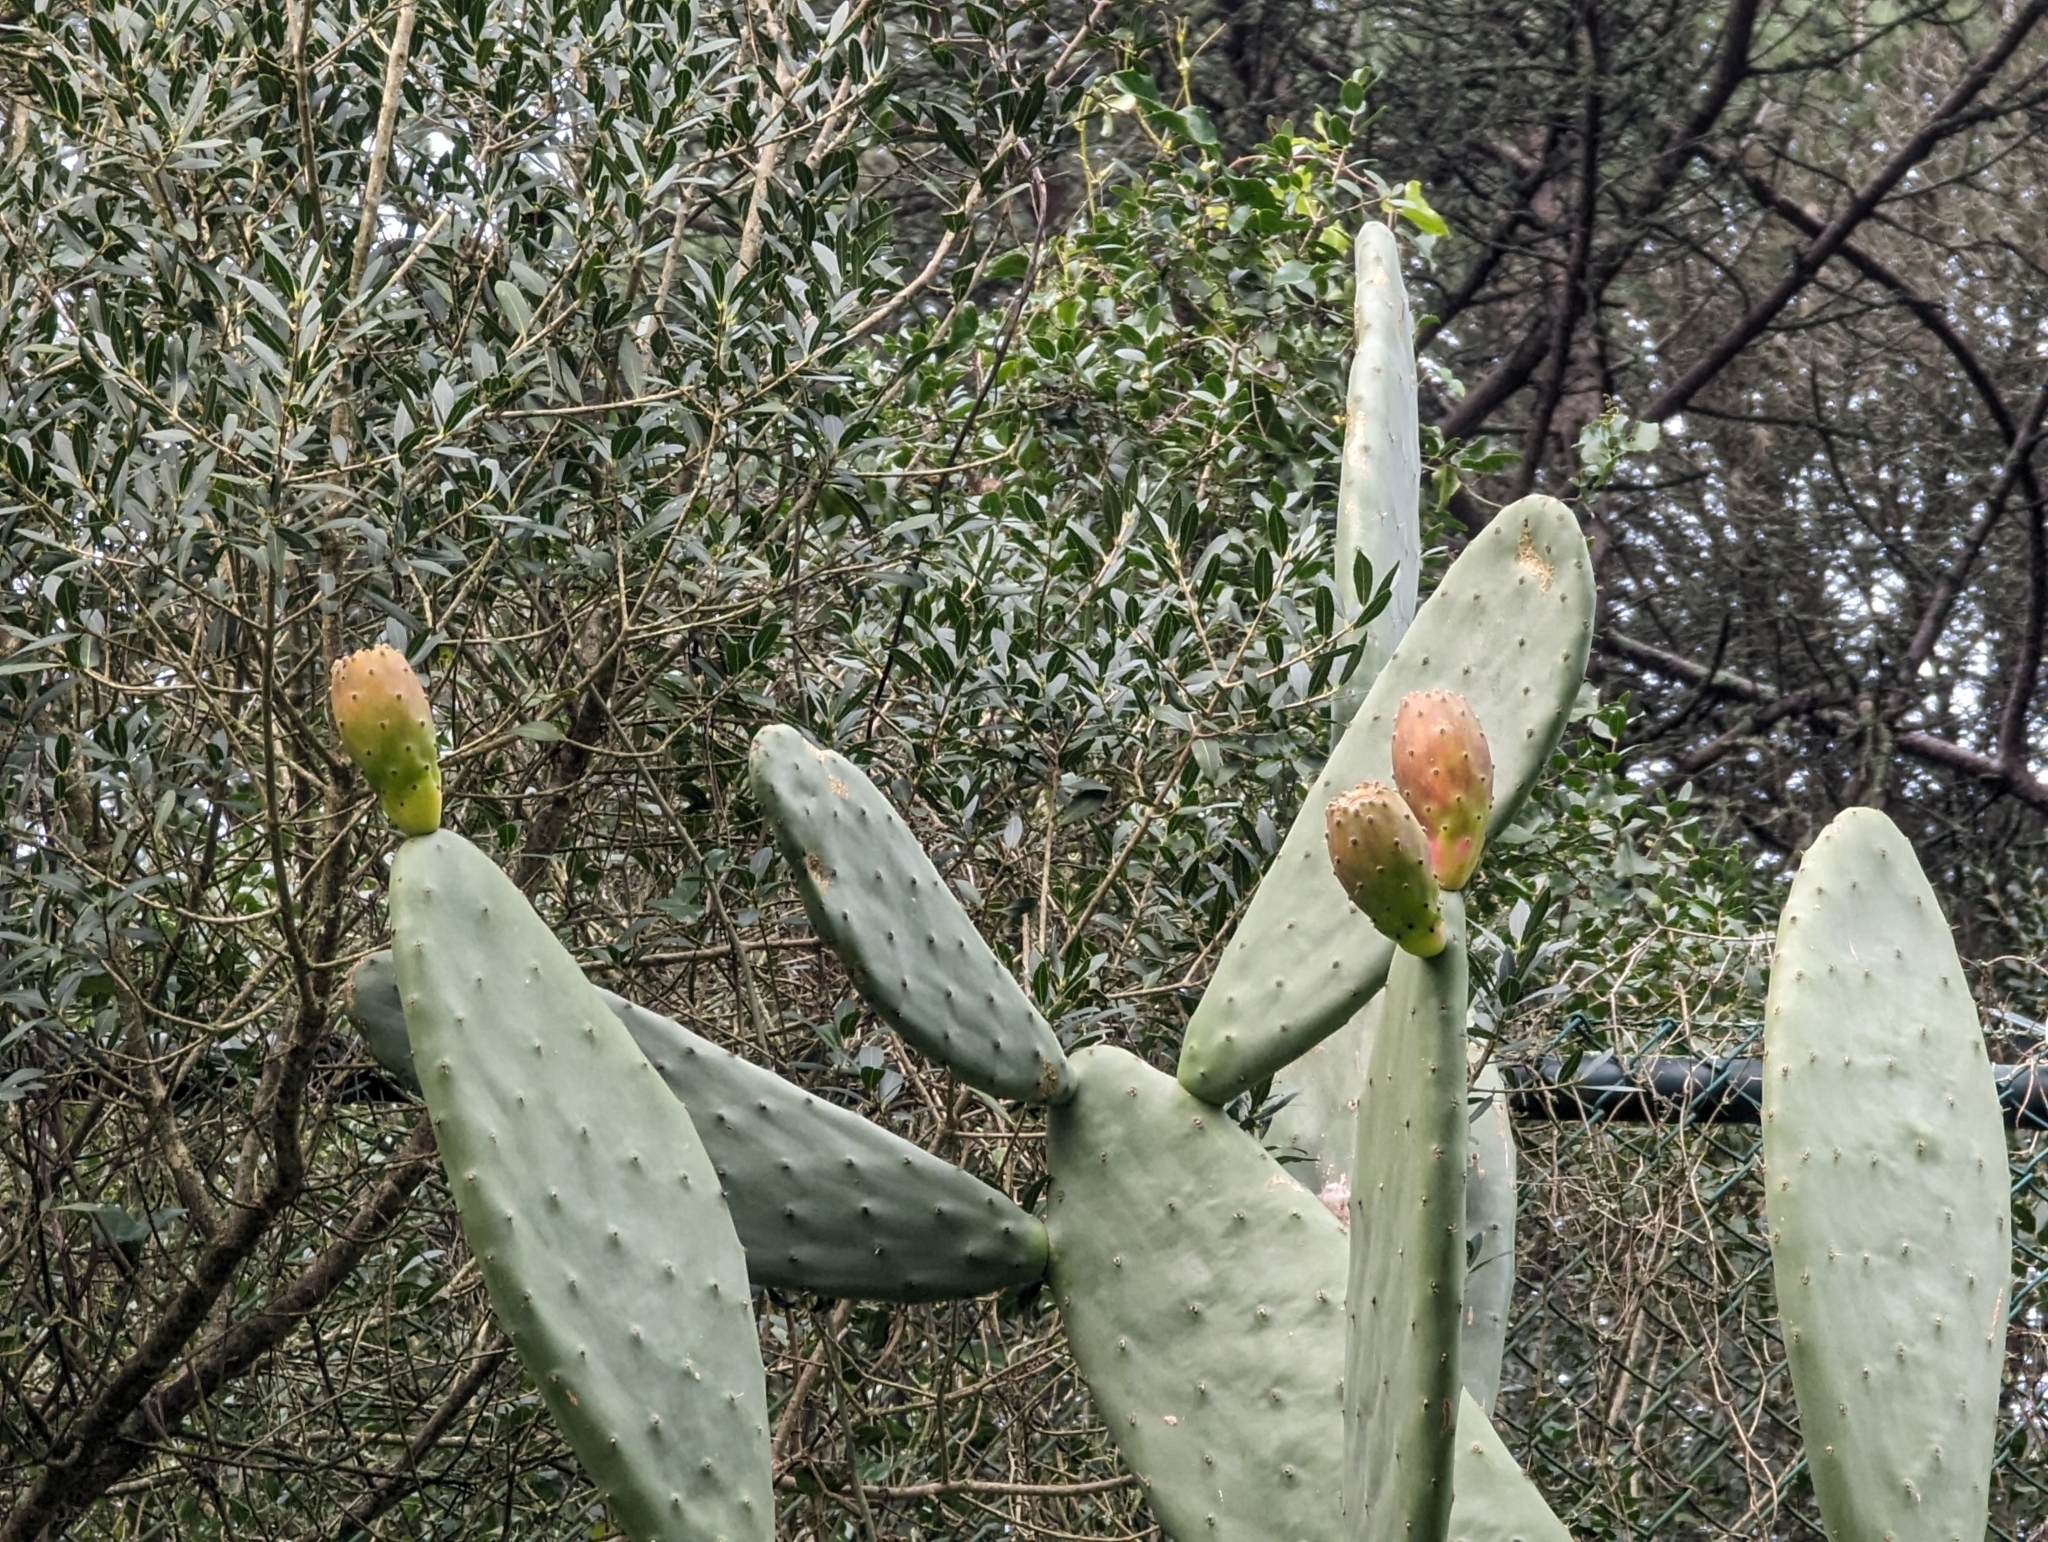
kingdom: Plantae
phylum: Tracheophyta
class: Magnoliopsida
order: Caryophyllales
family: Cactaceae
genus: Opuntia
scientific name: Opuntia ficus-indica
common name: Barbary fig
